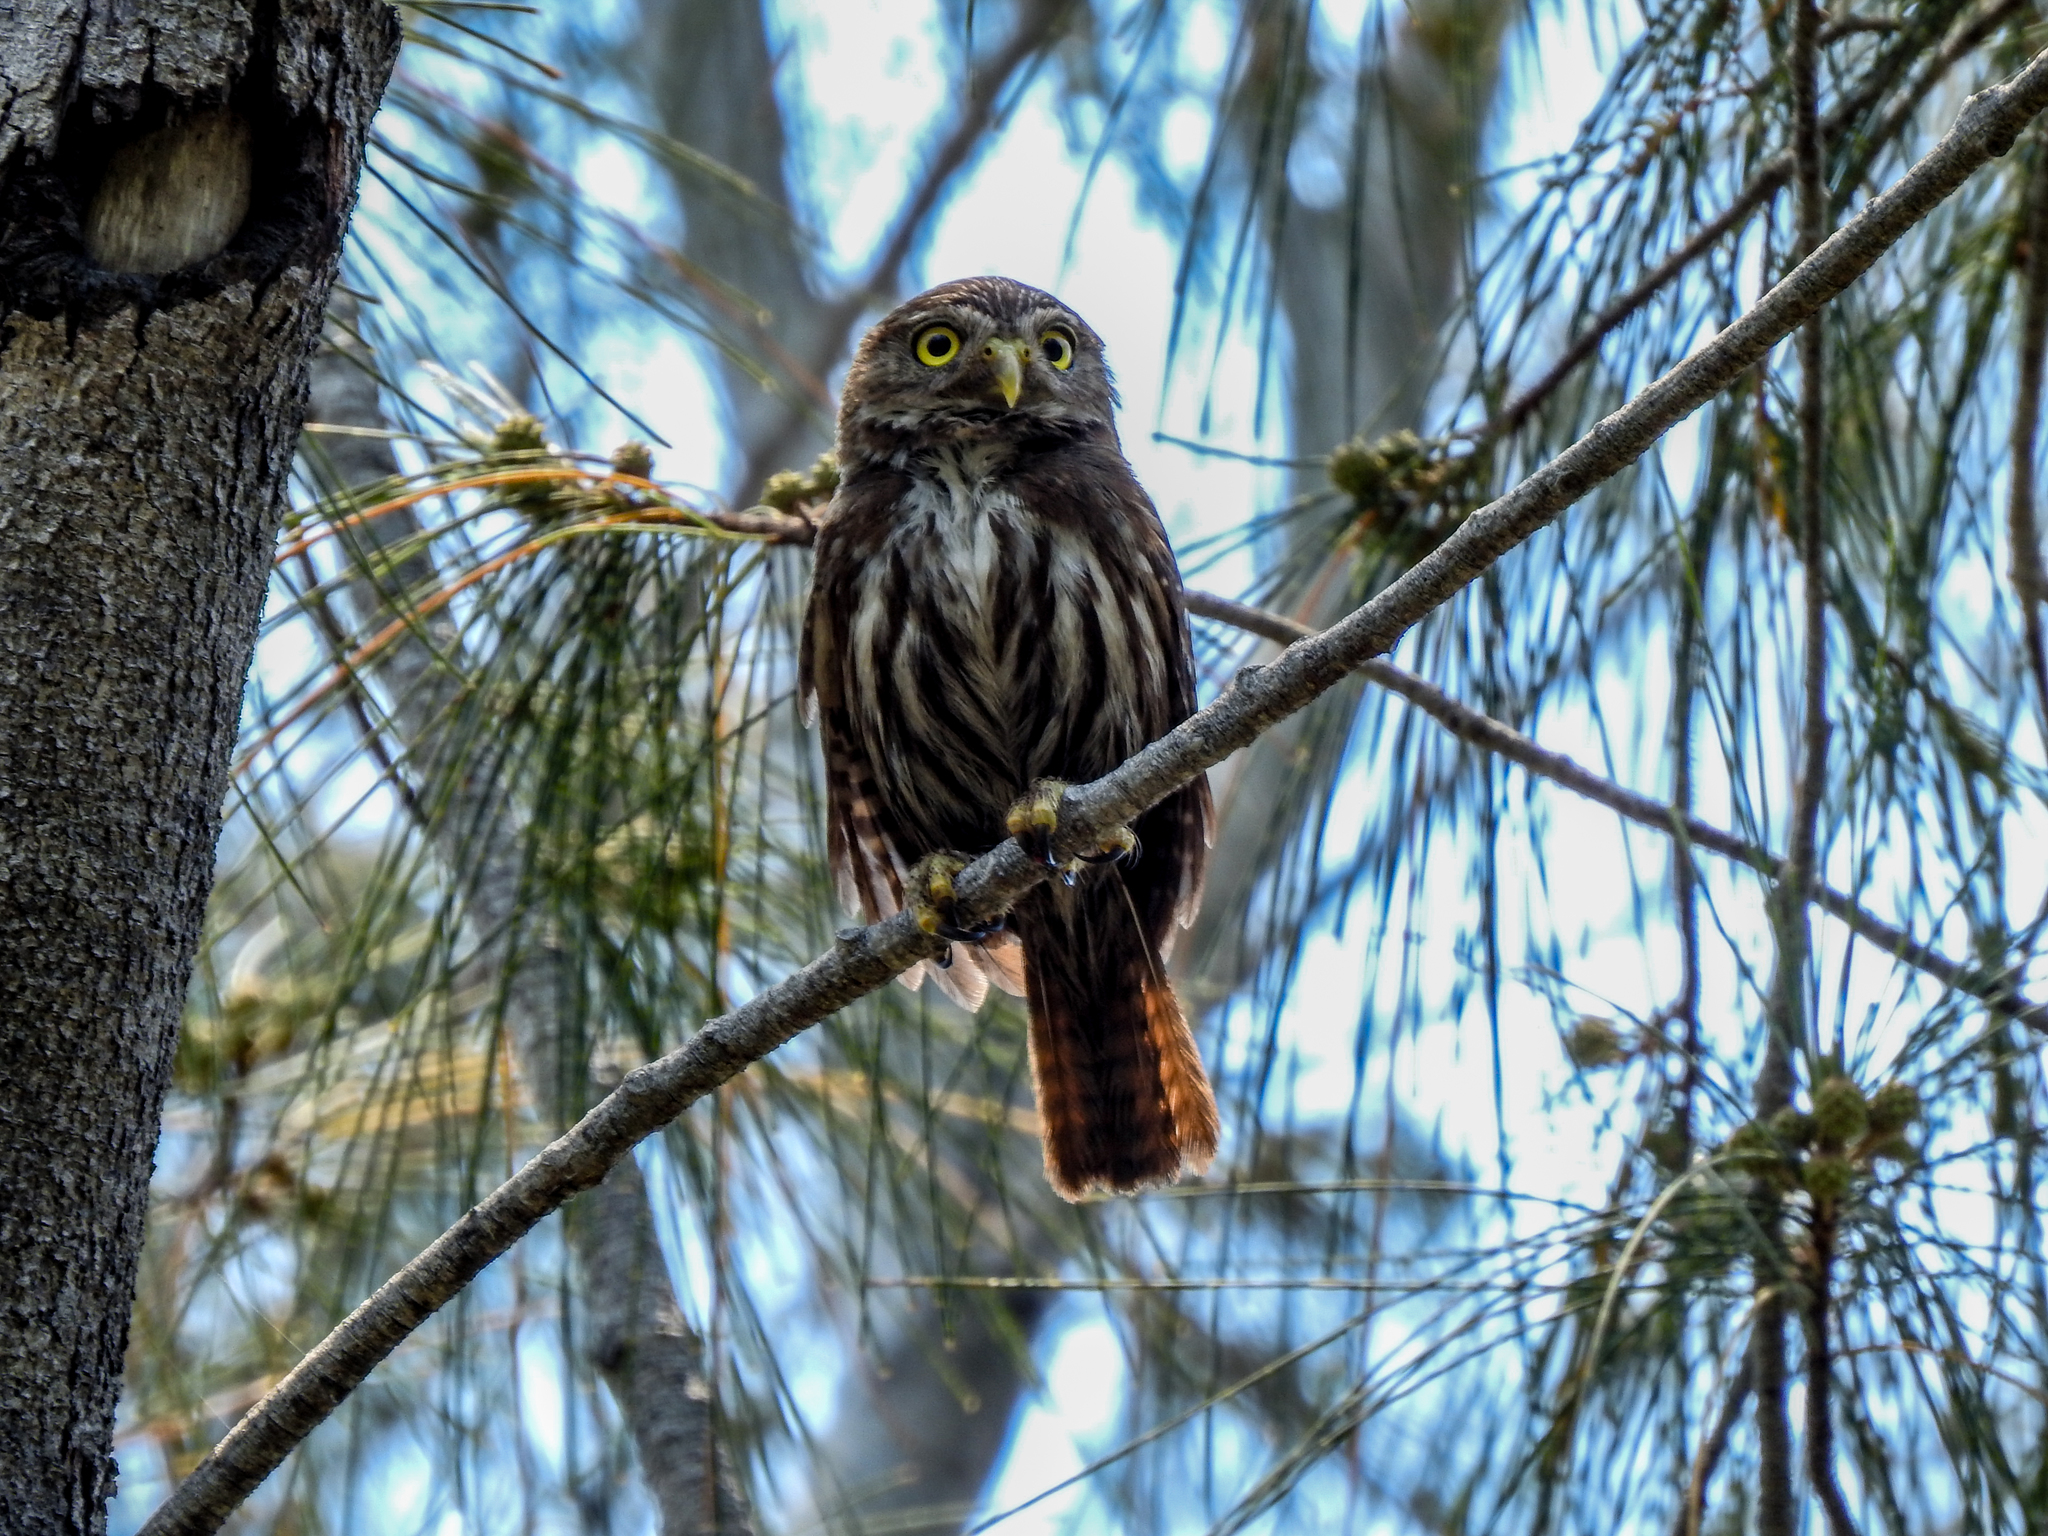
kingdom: Animalia
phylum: Chordata
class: Aves
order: Strigiformes
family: Strigidae
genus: Glaucidium
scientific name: Glaucidium brasilianum
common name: Ferruginous pygmy-owl
